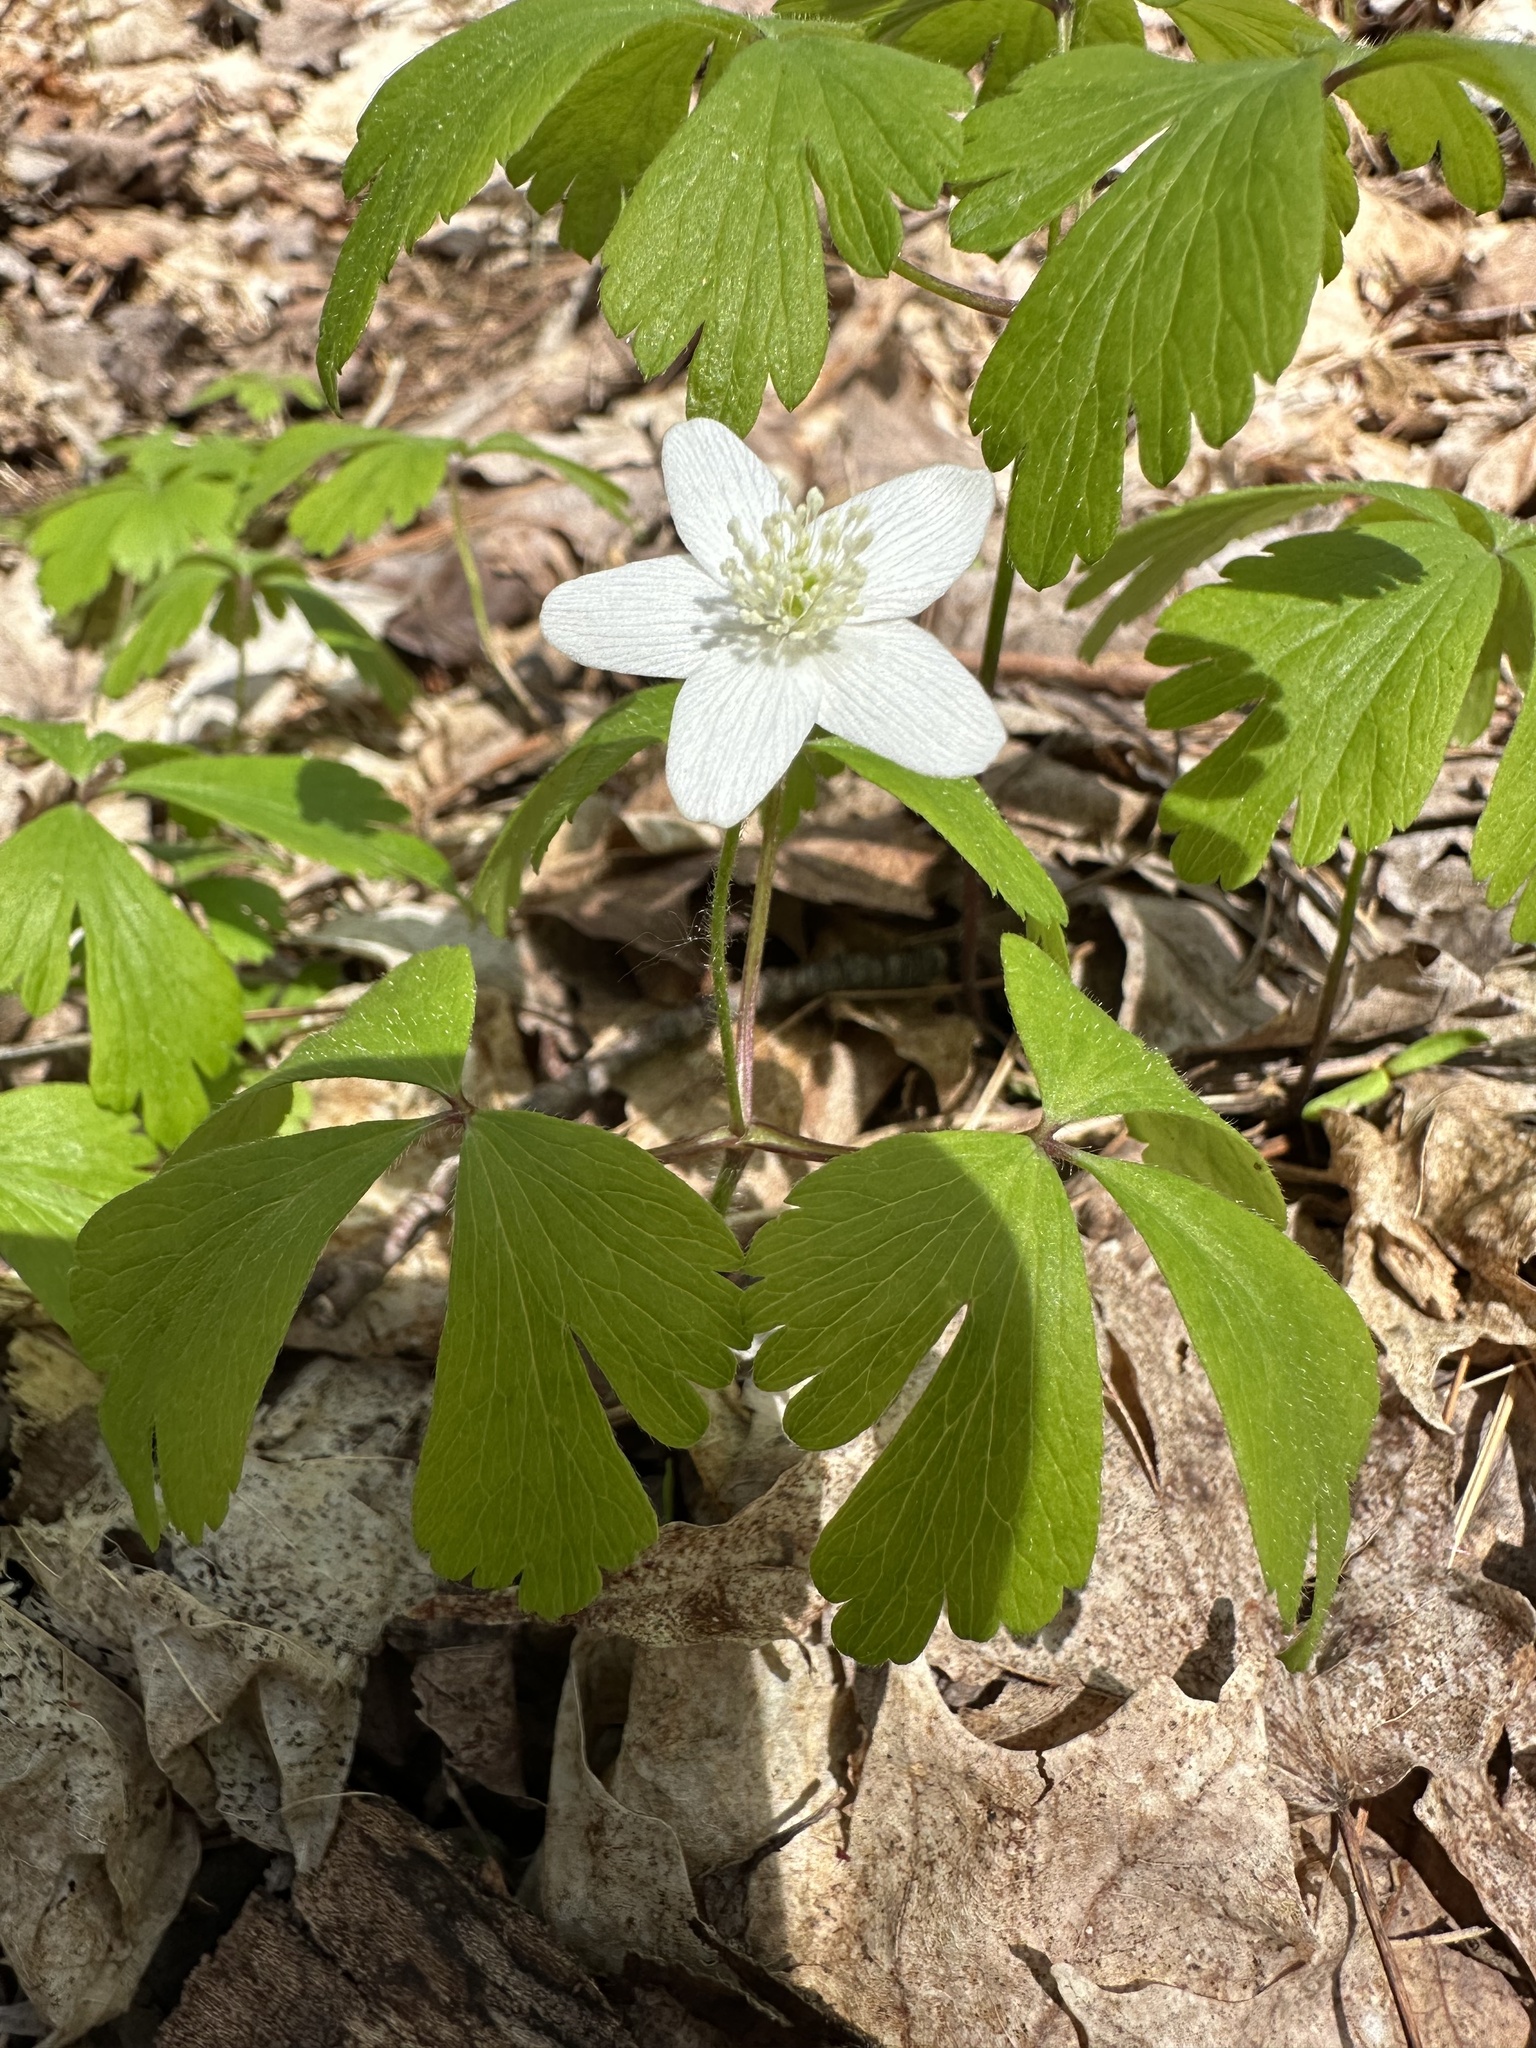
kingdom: Plantae
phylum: Tracheophyta
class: Magnoliopsida
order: Ranunculales
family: Ranunculaceae
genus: Anemone
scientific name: Anemone quinquefolia
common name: Wood anemone
